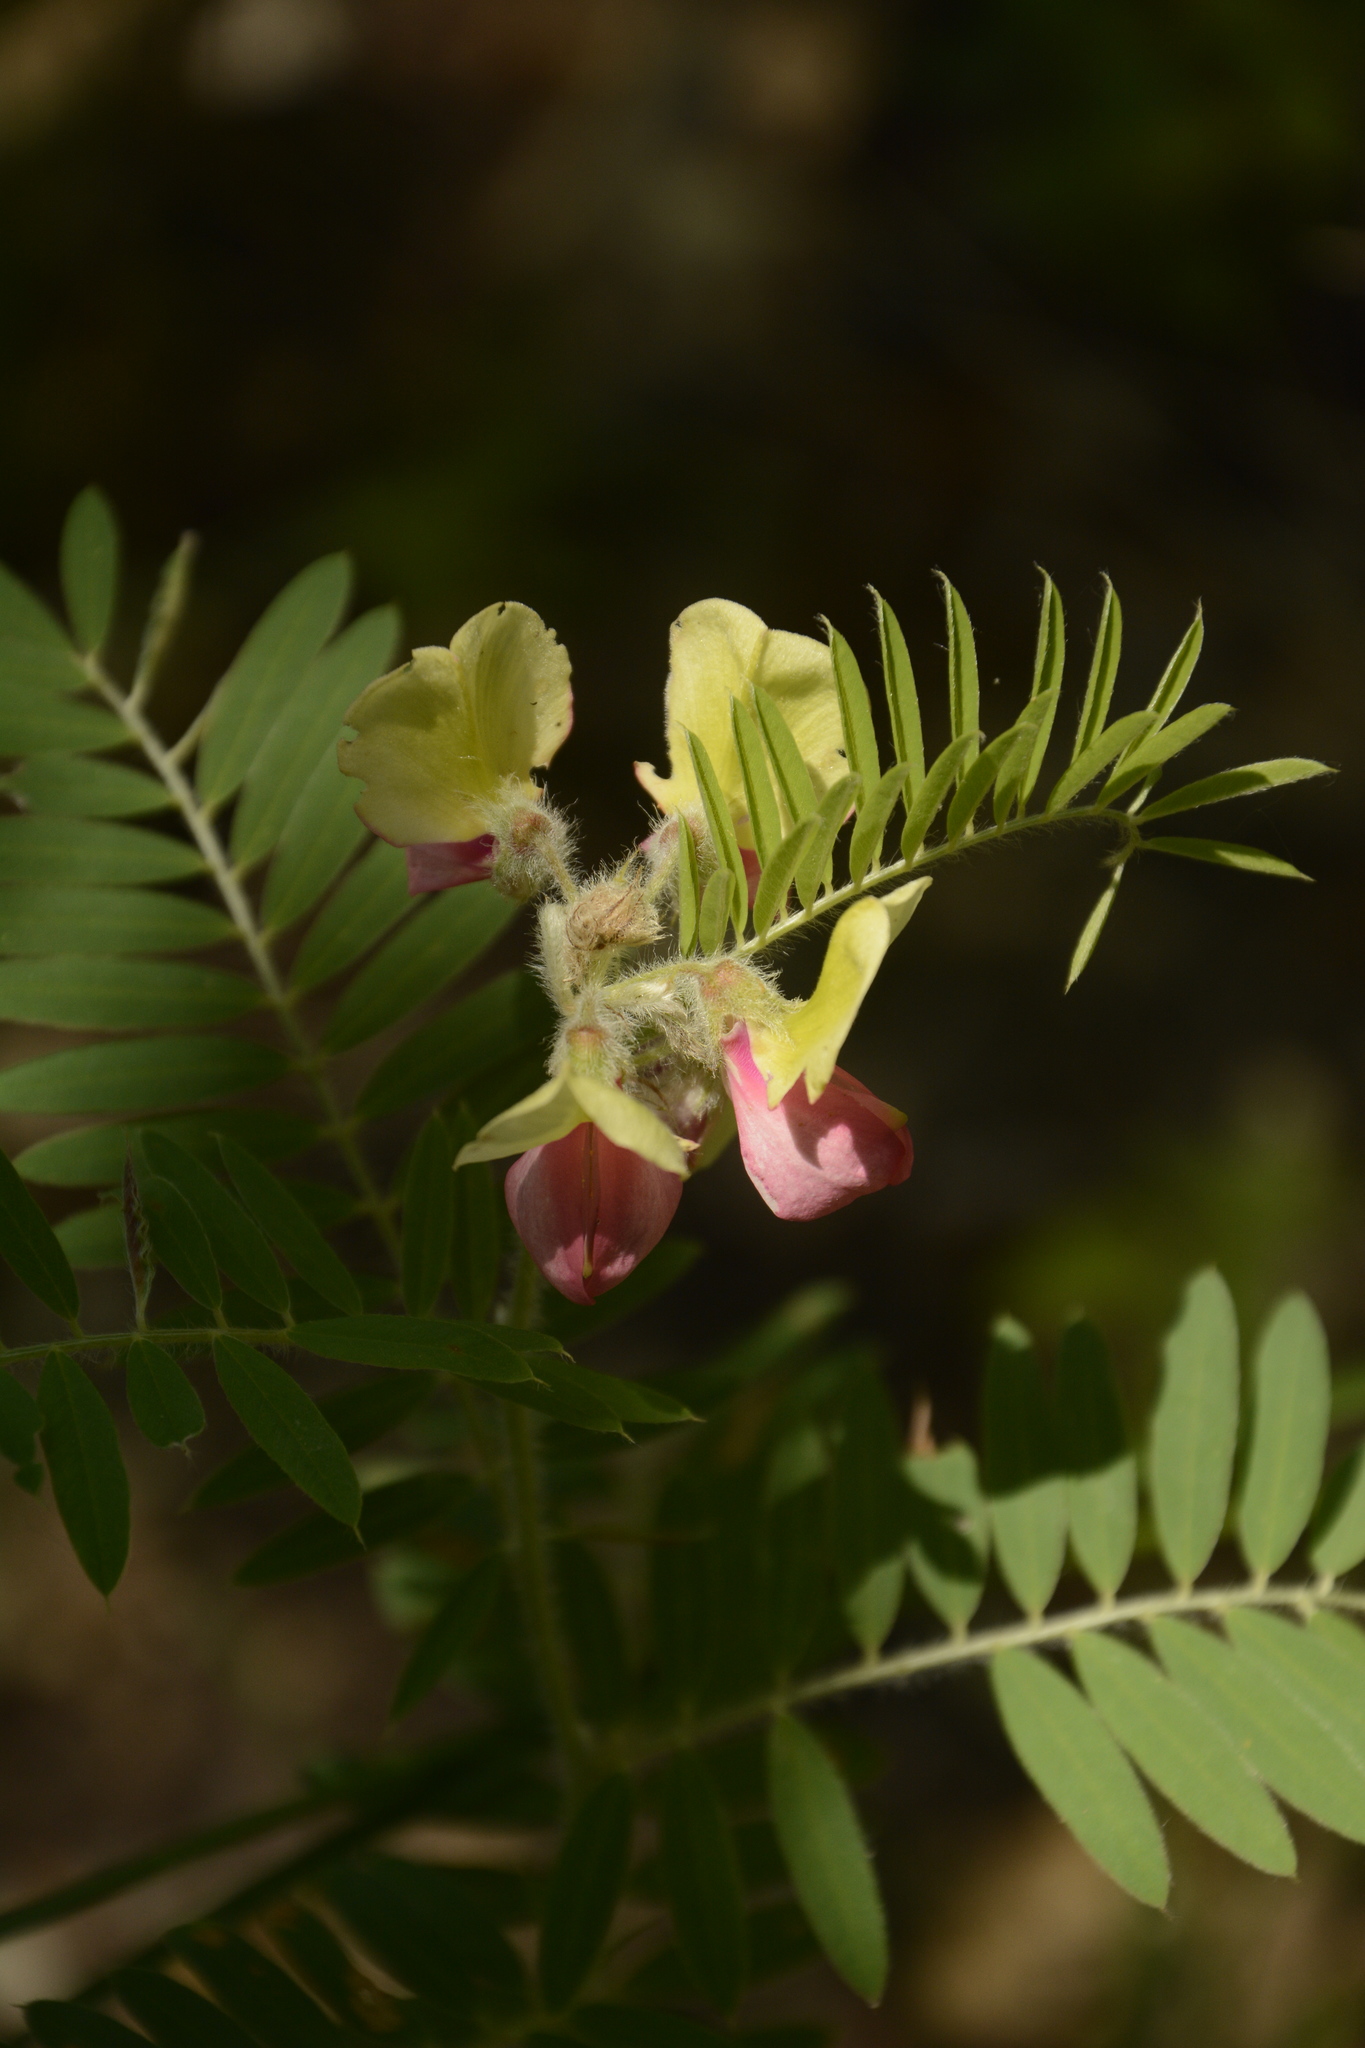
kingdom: Plantae
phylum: Tracheophyta
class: Magnoliopsida
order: Fabales
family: Fabaceae
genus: Tephrosia
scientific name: Tephrosia virginiana
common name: Rabbit-pea
